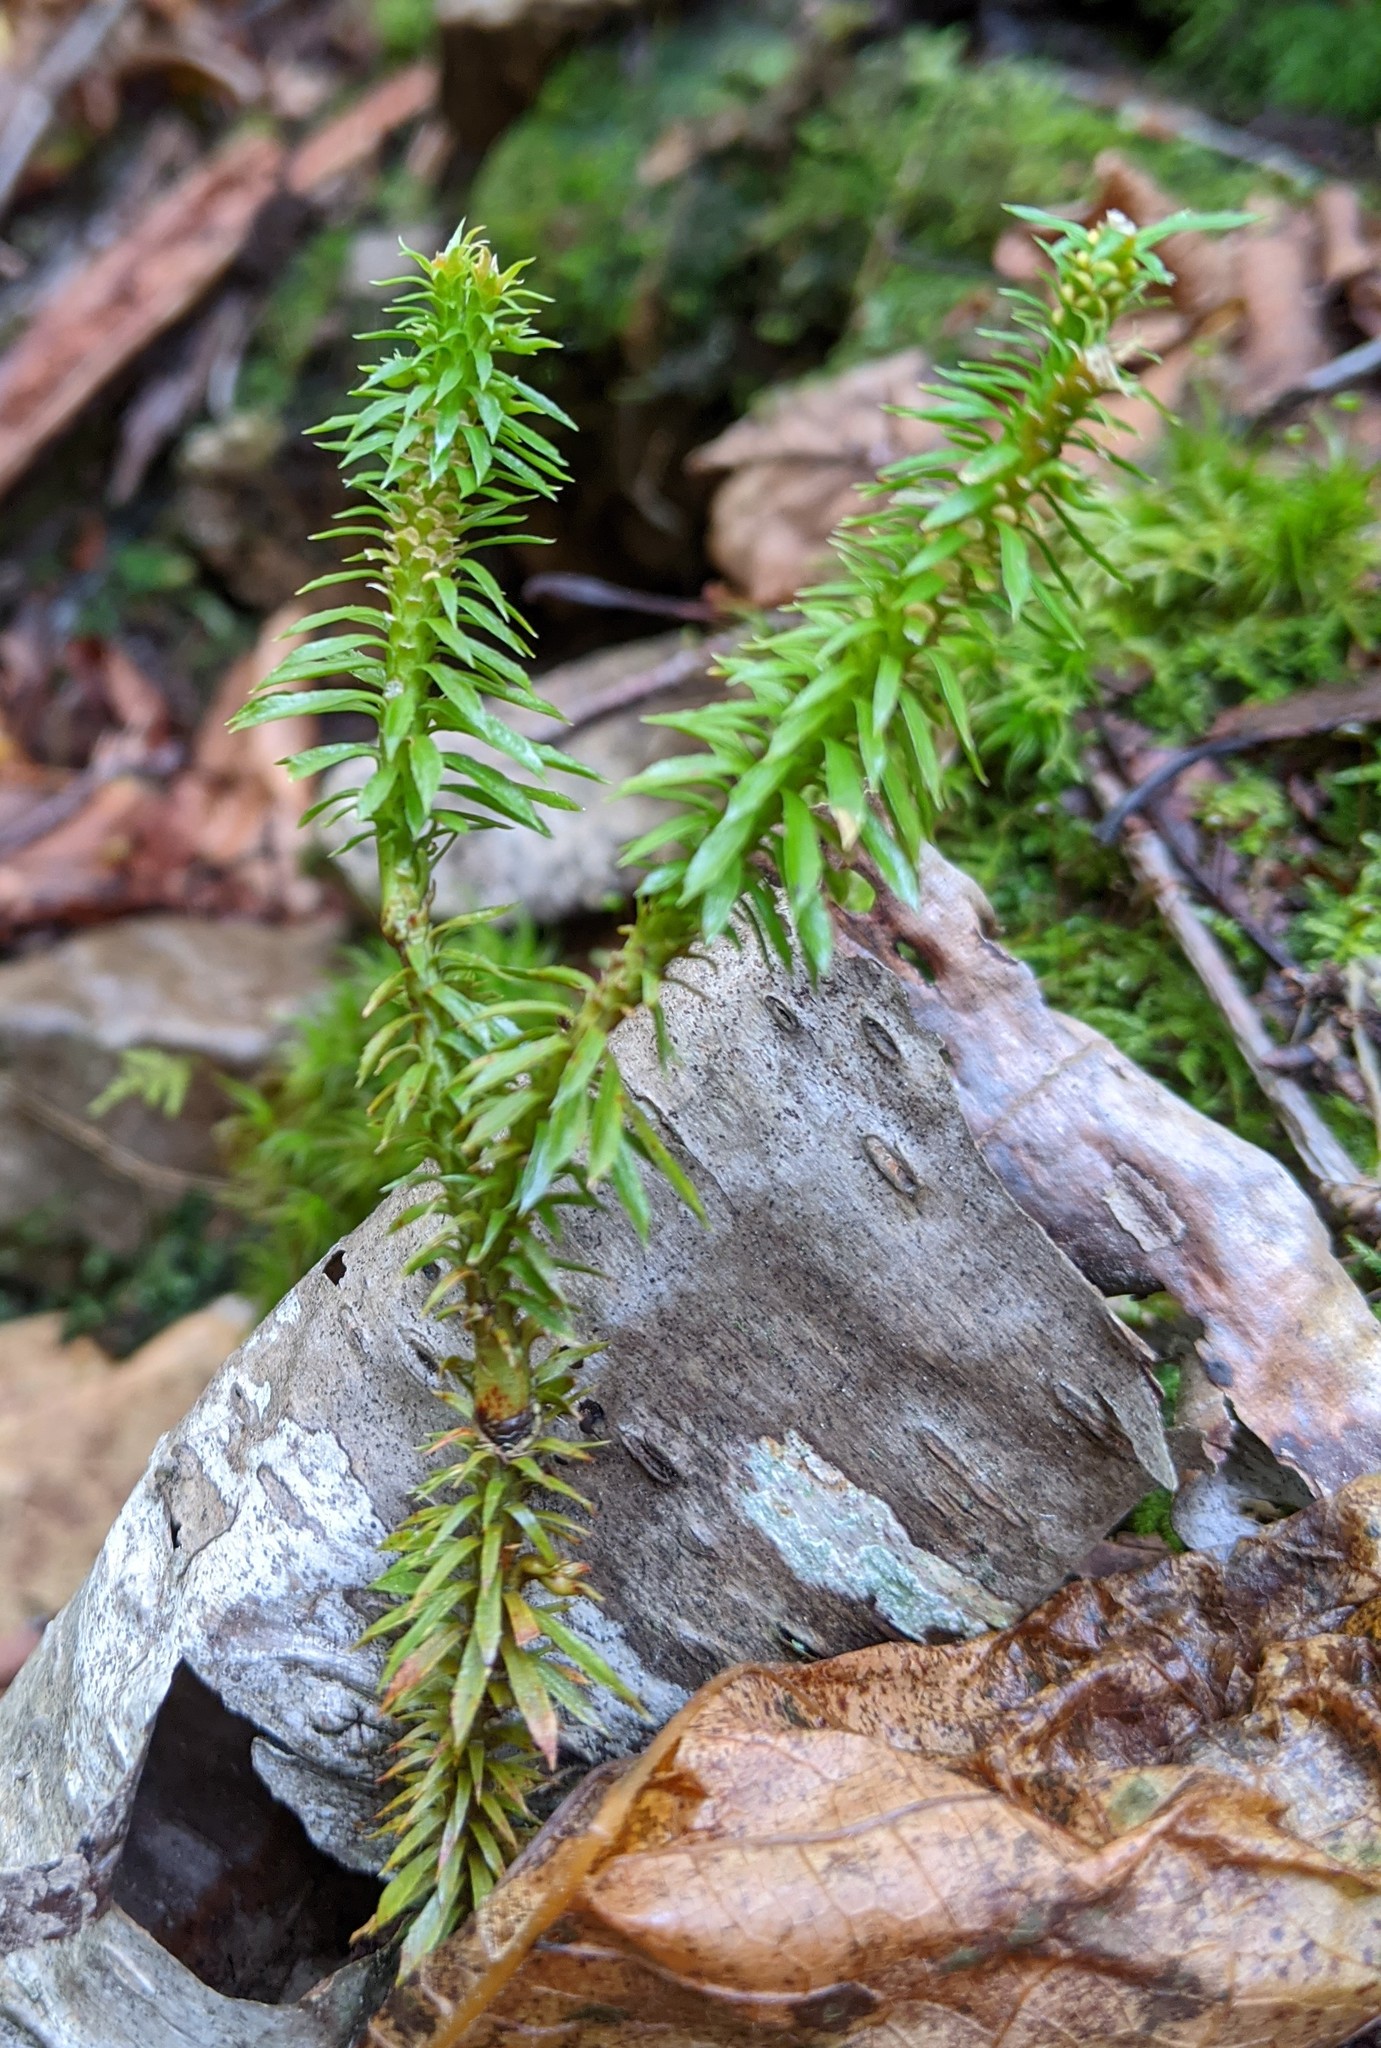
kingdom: Plantae
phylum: Tracheophyta
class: Lycopodiopsida
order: Lycopodiales
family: Lycopodiaceae
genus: Spinulum
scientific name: Spinulum annotinum
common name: Interrupted club-moss
